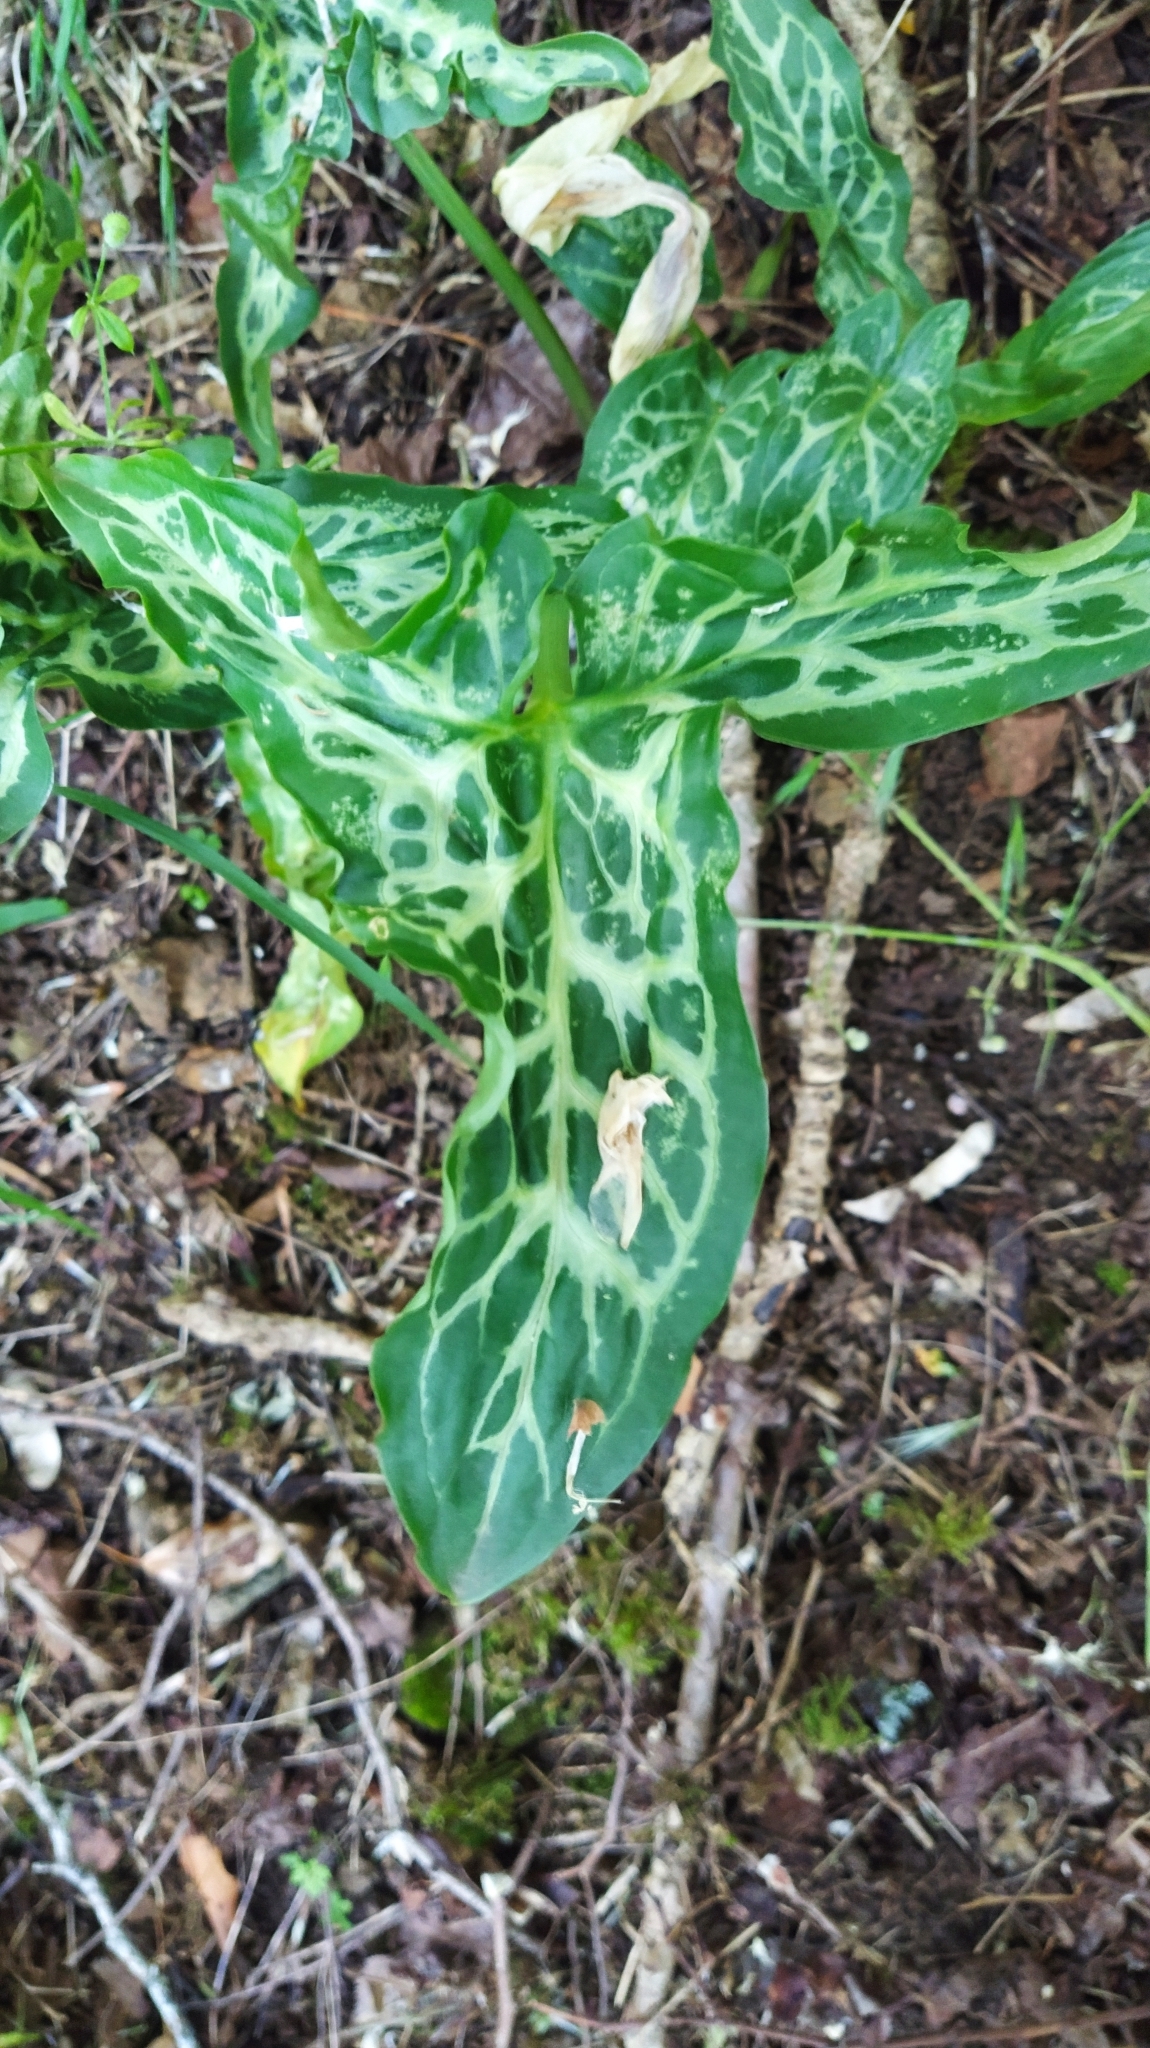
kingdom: Plantae
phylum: Tracheophyta
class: Liliopsida
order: Alismatales
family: Araceae
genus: Arum
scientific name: Arum italicum
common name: Italian lords-and-ladies
